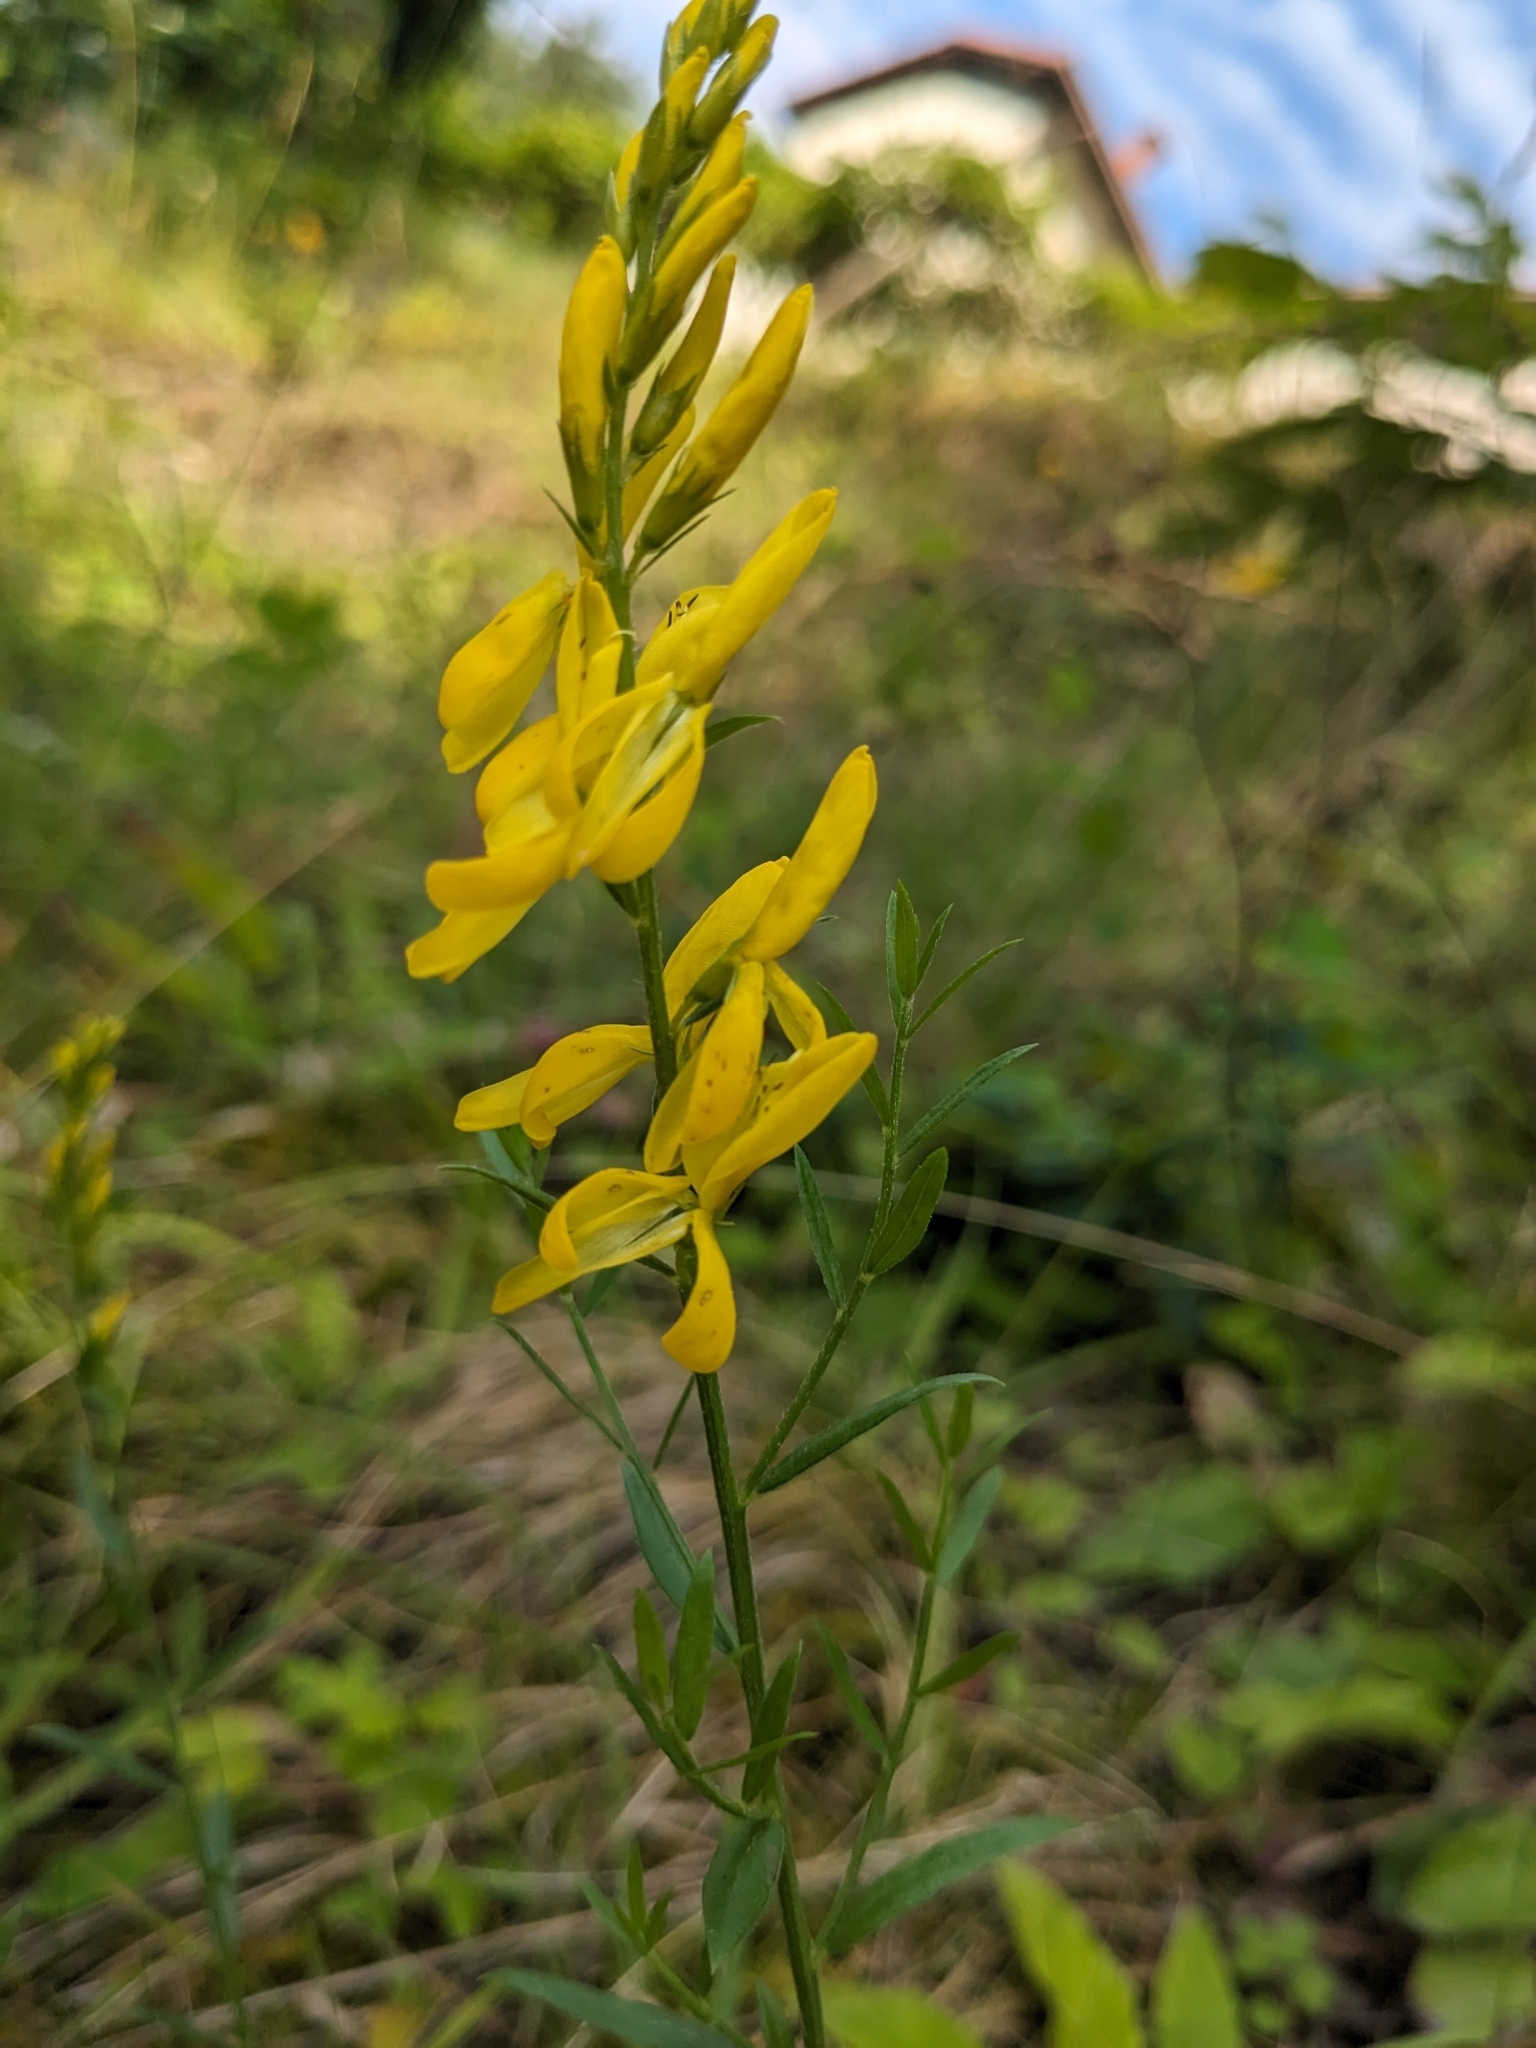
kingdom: Plantae
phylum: Tracheophyta
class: Magnoliopsida
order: Fabales
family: Fabaceae
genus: Genista
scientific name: Genista tinctoria
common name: Dyer's greenweed
